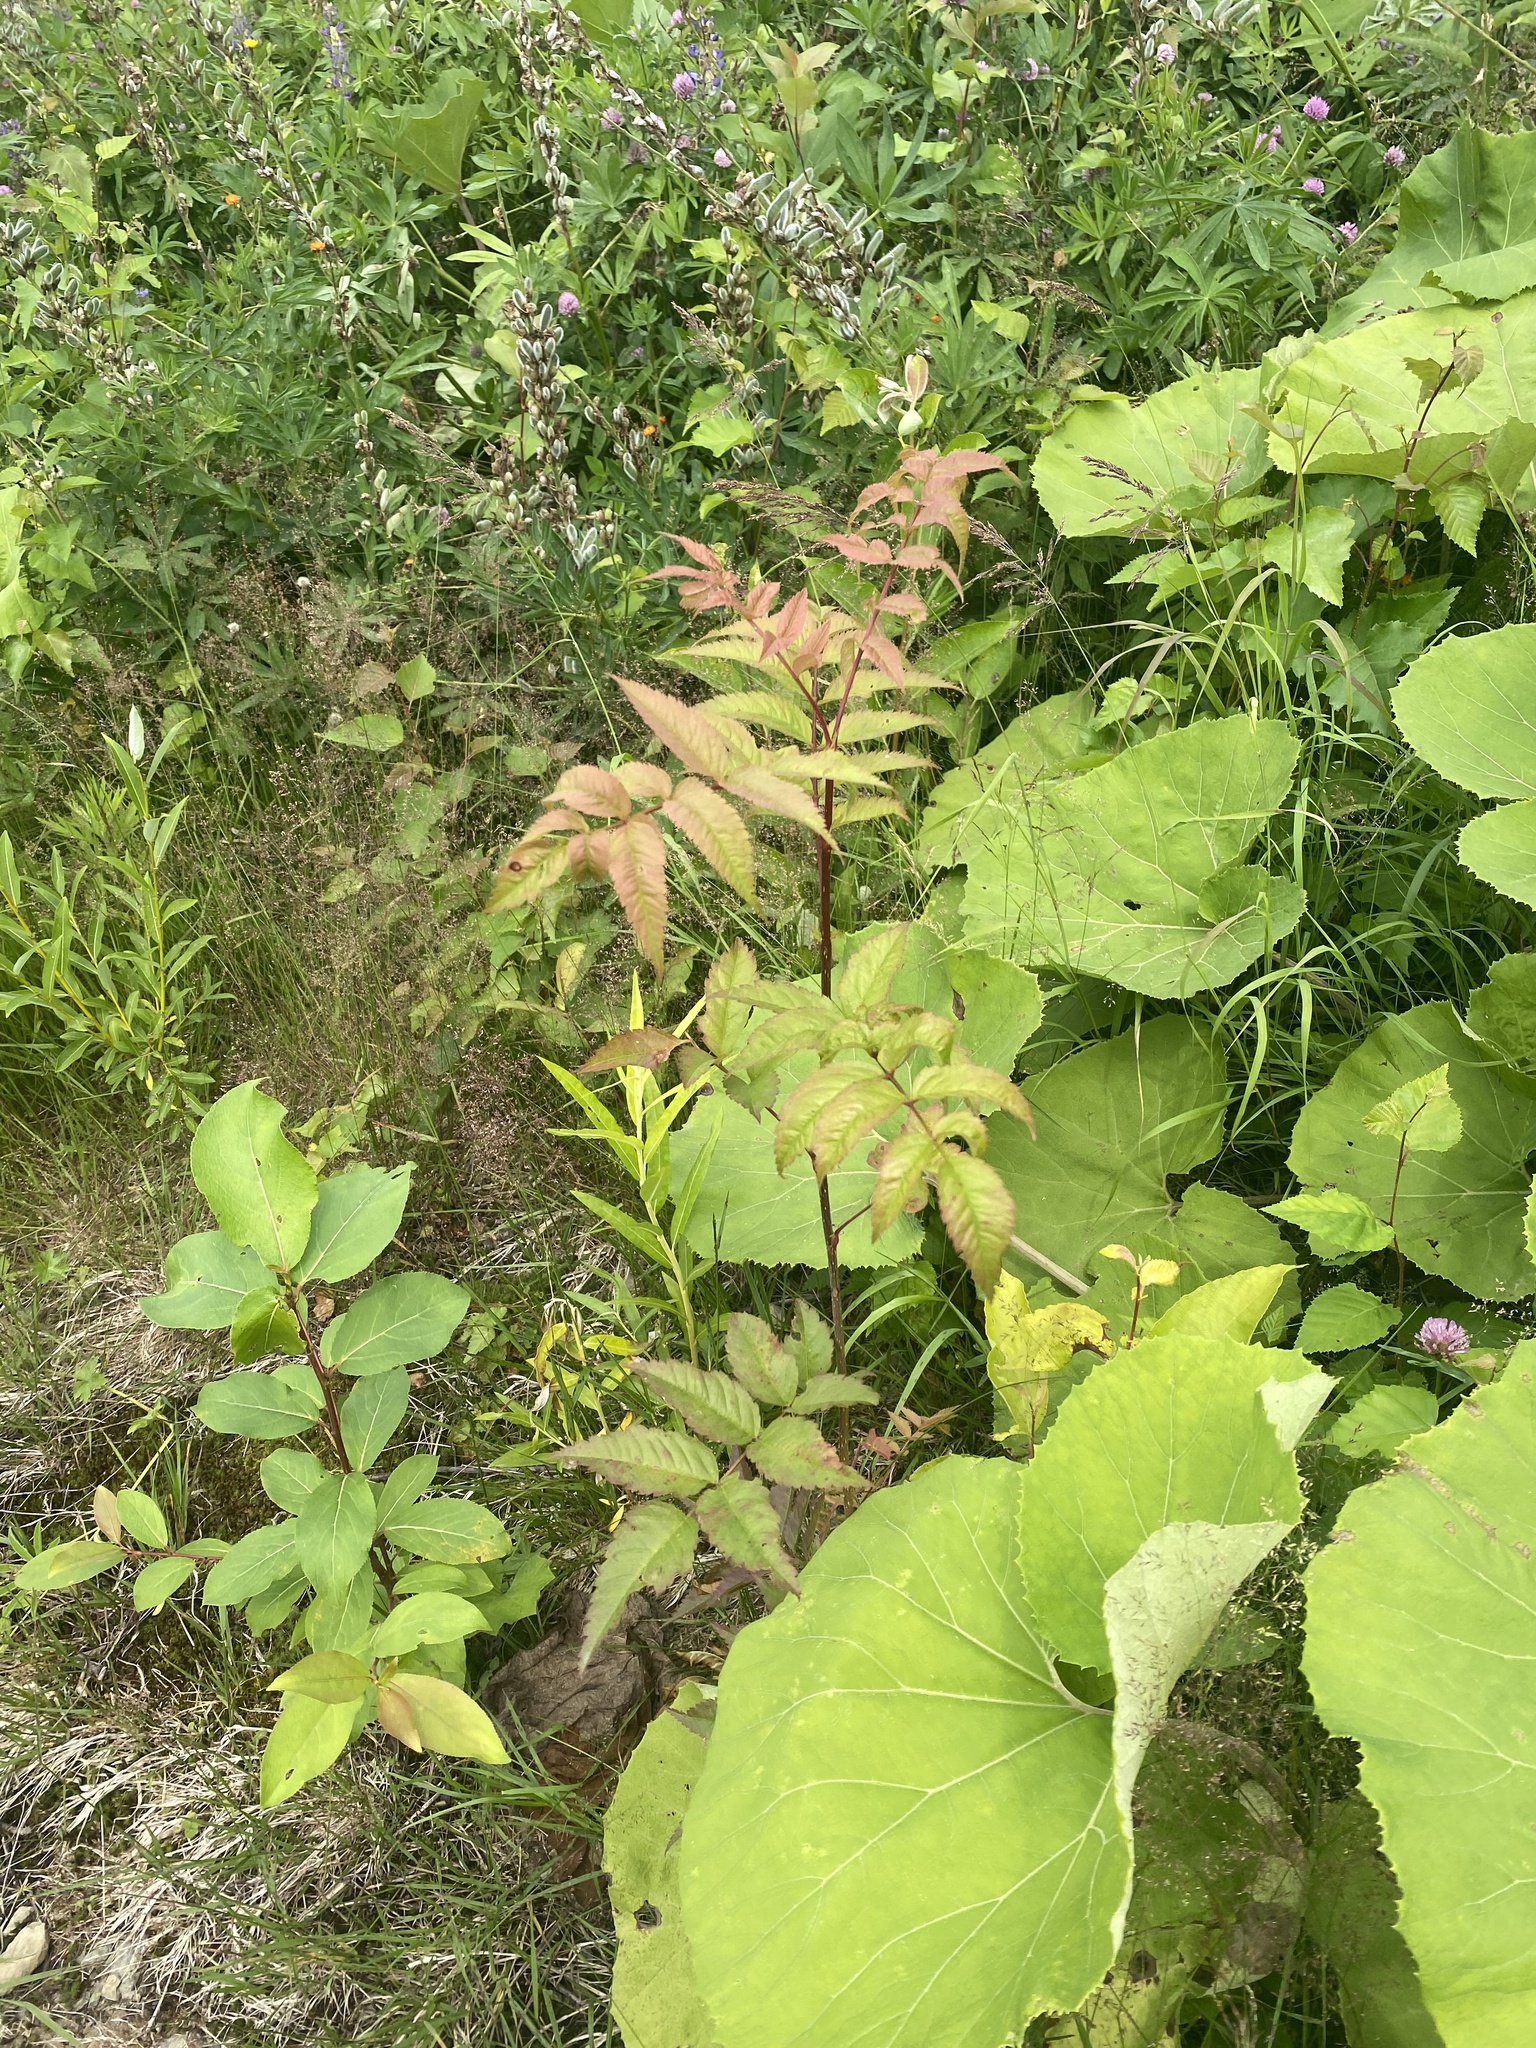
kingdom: Plantae
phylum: Tracheophyta
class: Magnoliopsida
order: Rosales
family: Rosaceae
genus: Sorbaria
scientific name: Sorbaria sorbifolia
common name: False spiraea
